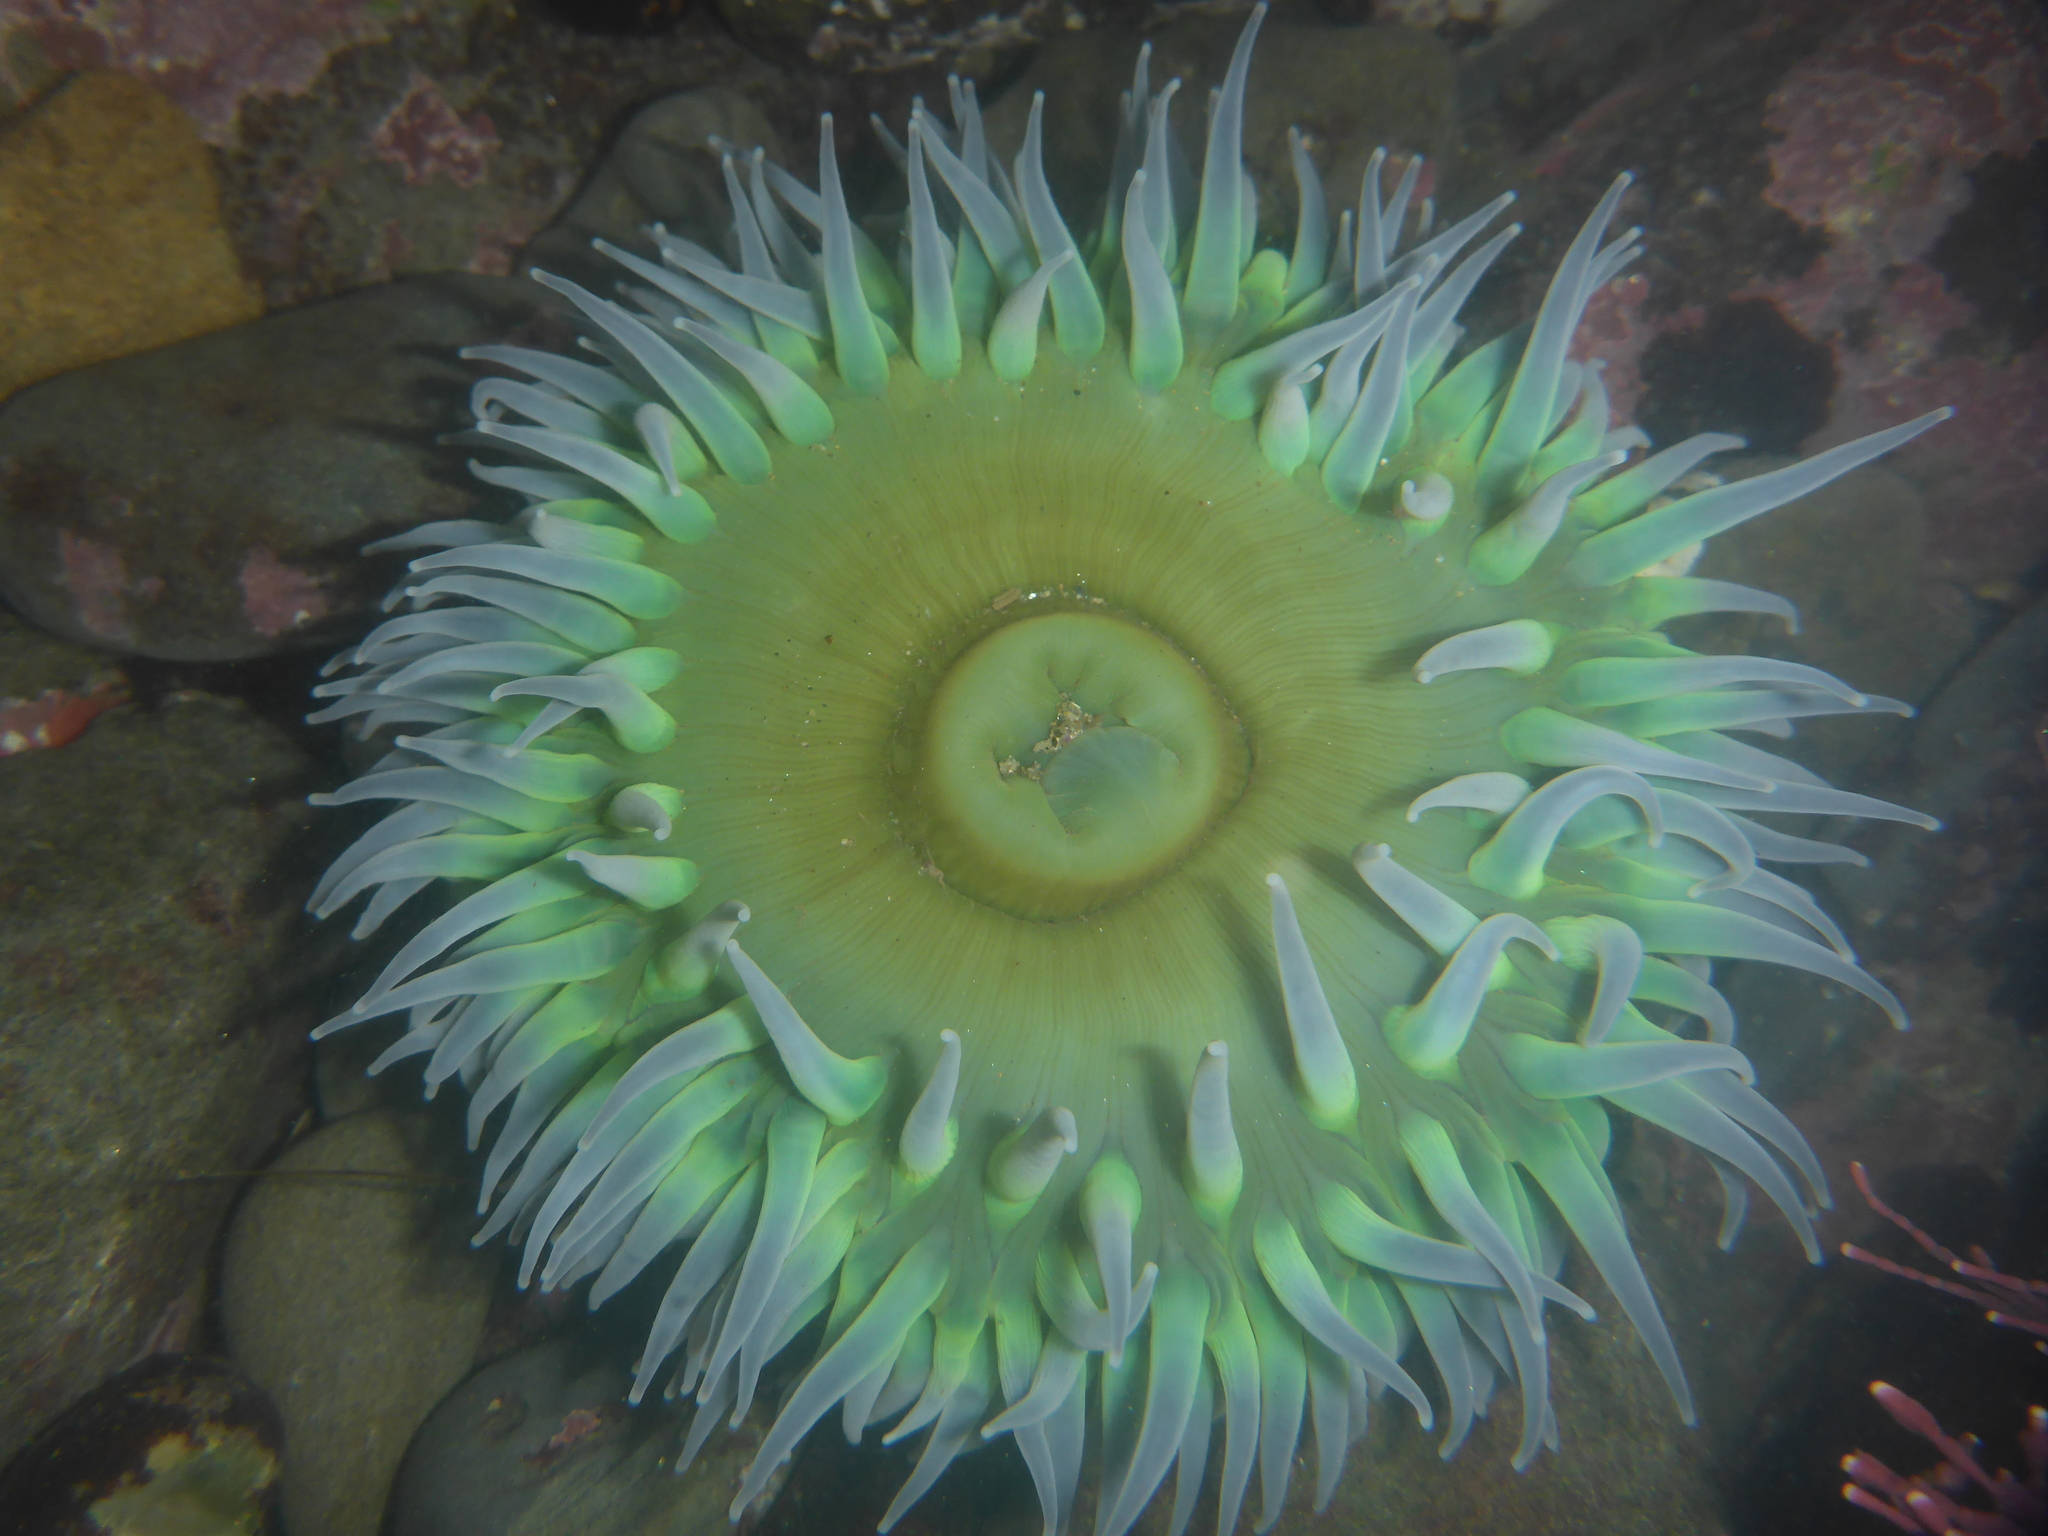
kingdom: Animalia
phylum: Cnidaria
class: Anthozoa
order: Actiniaria
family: Actiniidae
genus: Anthopleura
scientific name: Anthopleura xanthogrammica
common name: Giant green anemone
